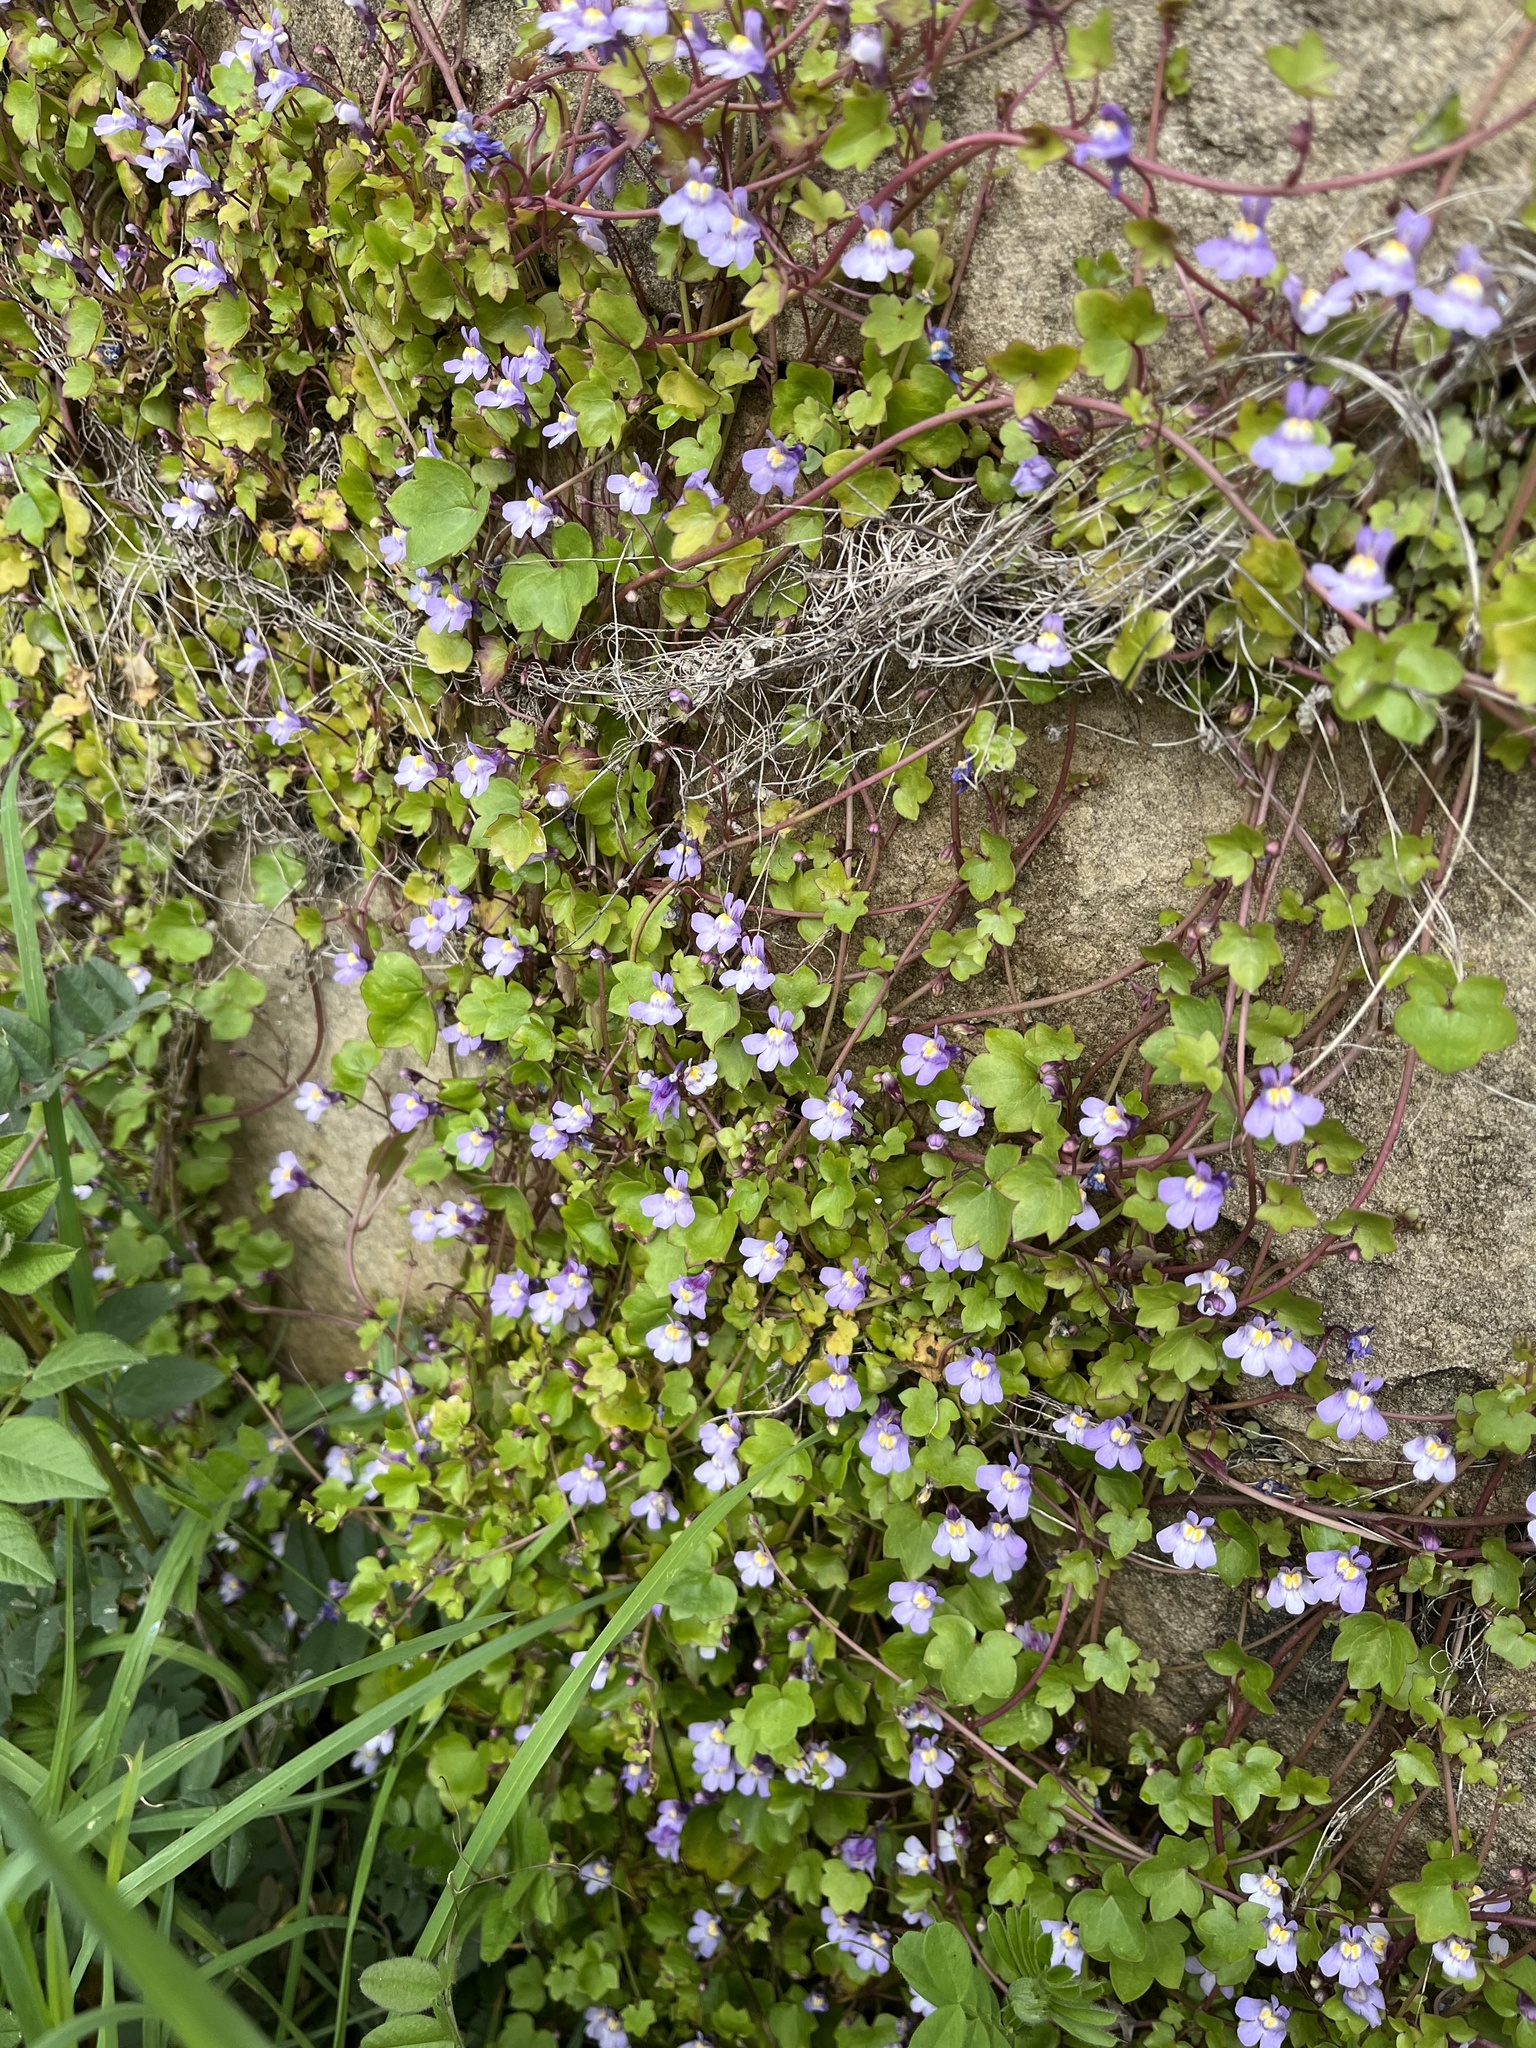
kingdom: Plantae
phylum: Tracheophyta
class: Magnoliopsida
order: Lamiales
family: Plantaginaceae
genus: Cymbalaria
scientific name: Cymbalaria muralis
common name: Ivy-leaved toadflax
